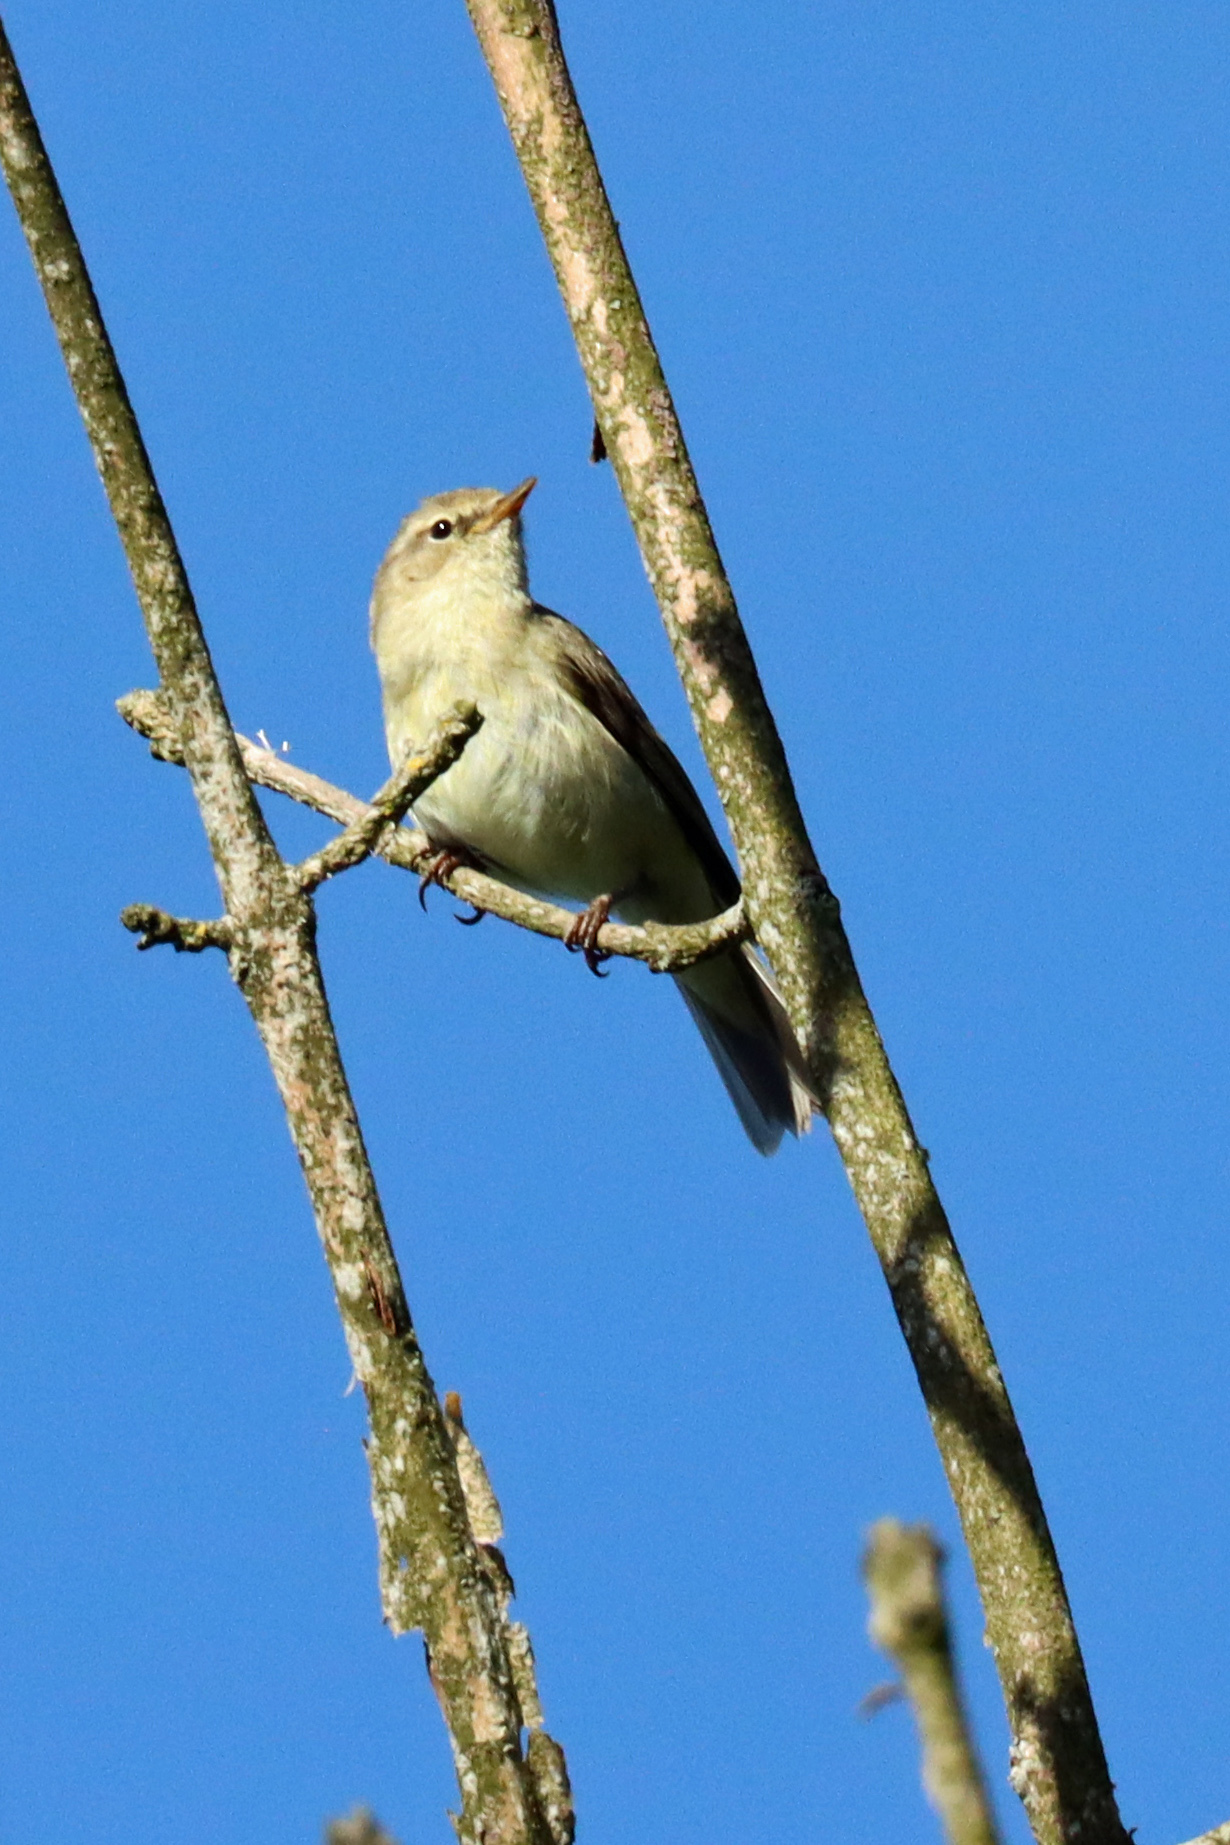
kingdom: Animalia
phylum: Chordata
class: Aves
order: Passeriformes
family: Phylloscopidae
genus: Phylloscopus
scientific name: Phylloscopus collybita
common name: Common chiffchaff
